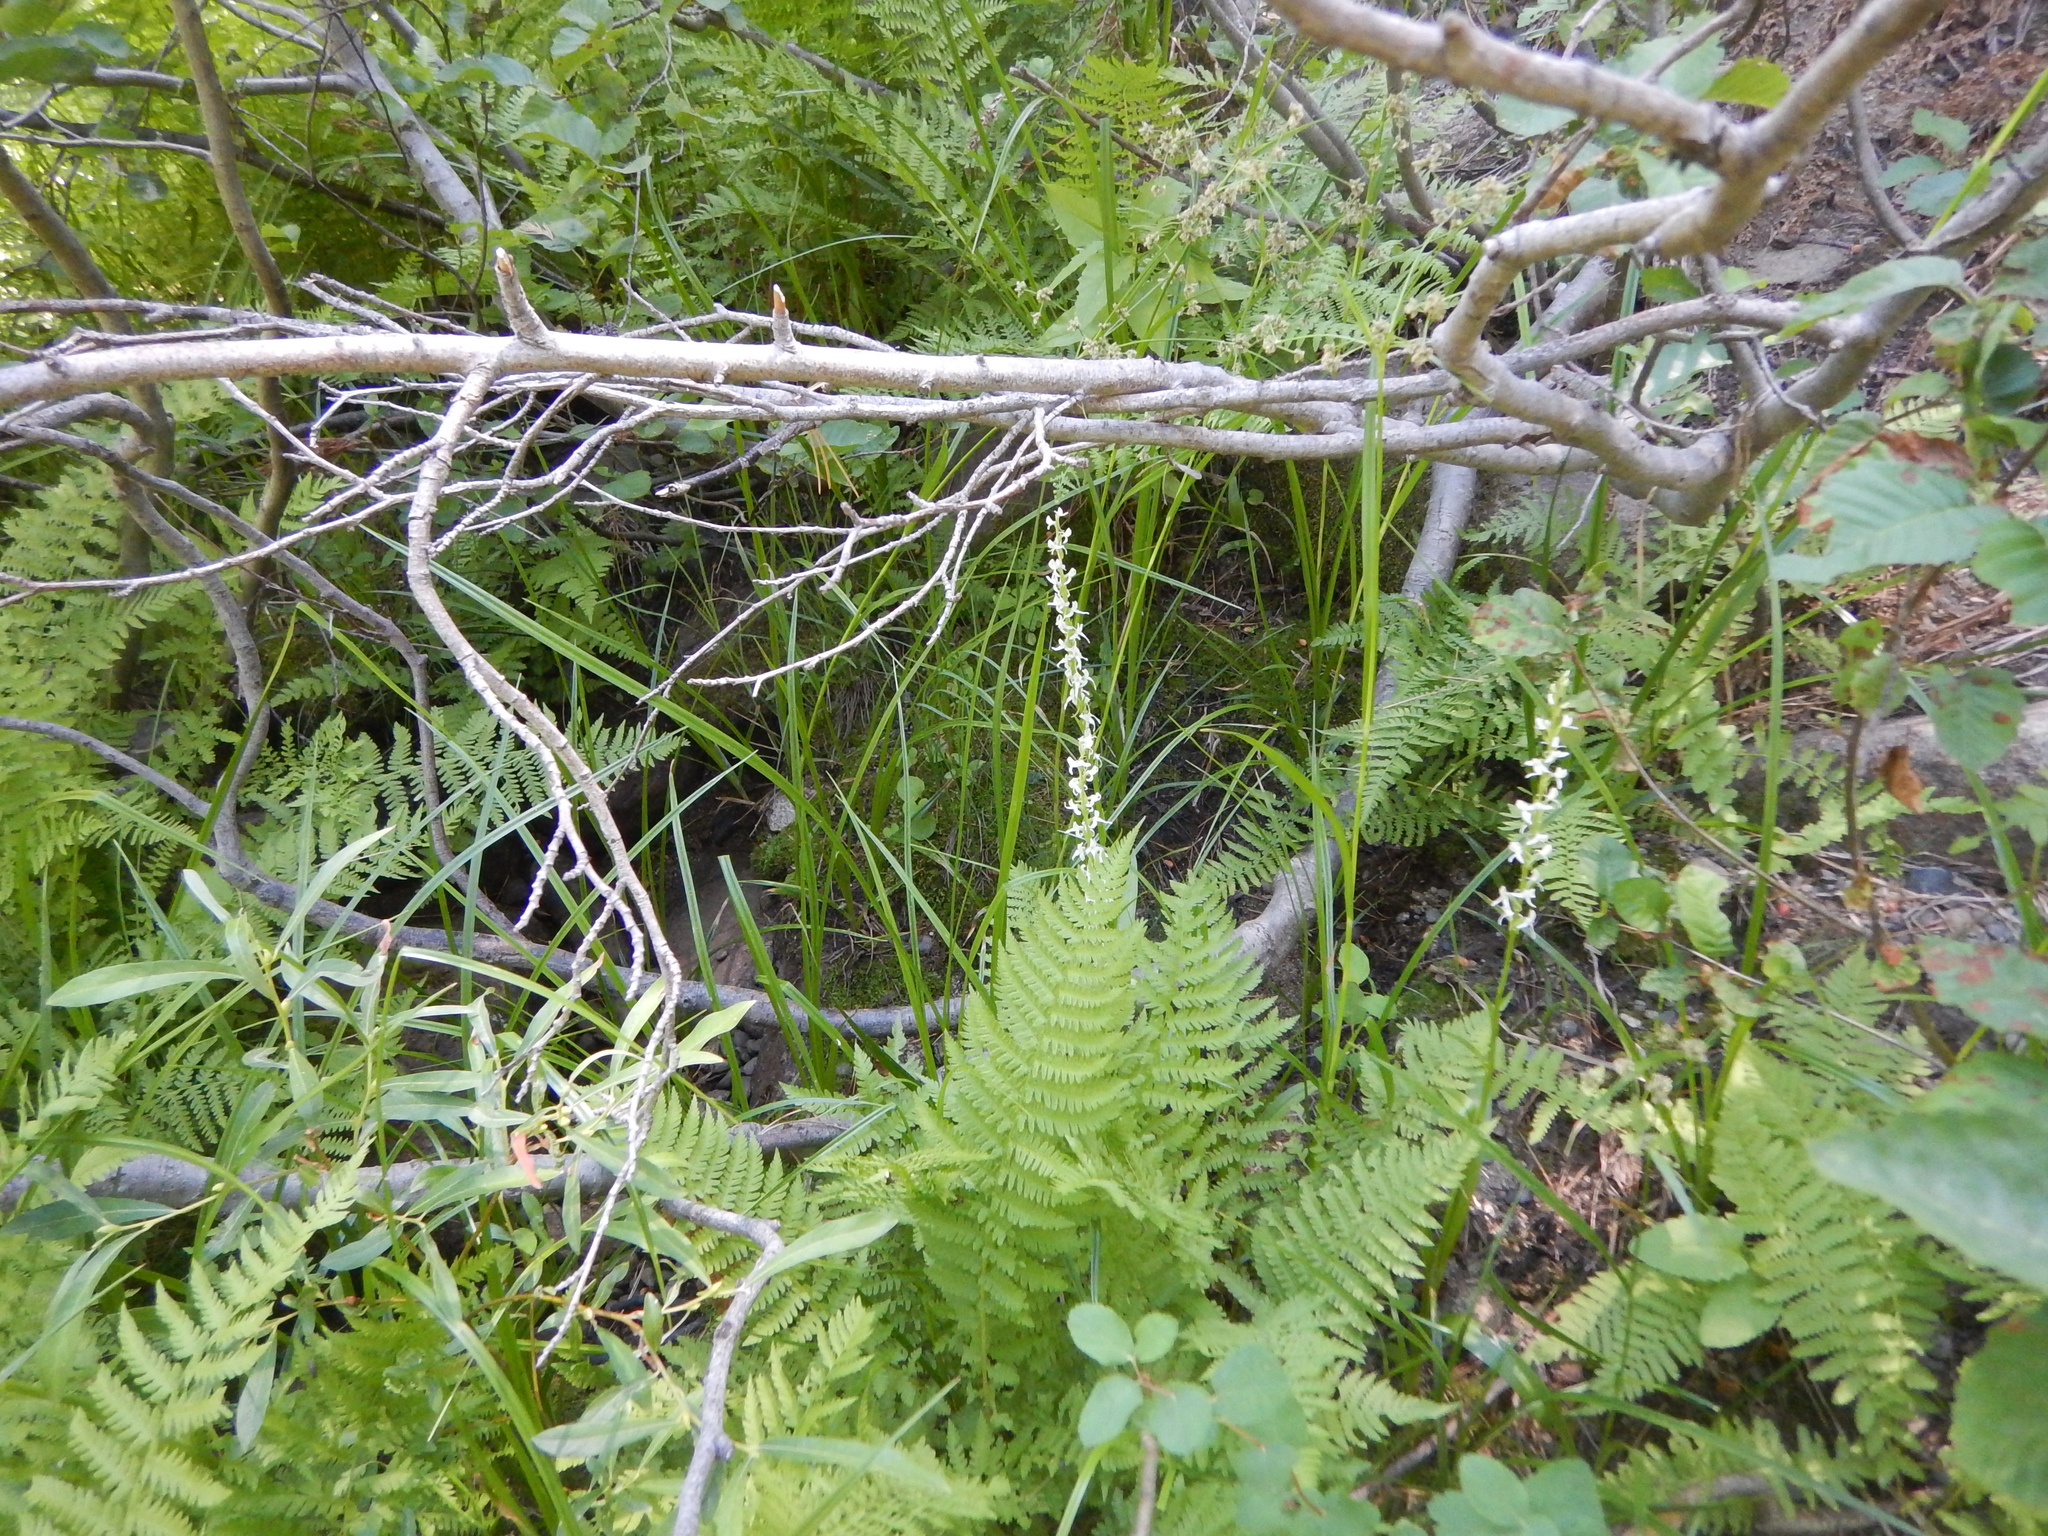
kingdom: Plantae
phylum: Tracheophyta
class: Liliopsida
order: Asparagales
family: Orchidaceae
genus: Platanthera
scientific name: Platanthera dilatata
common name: Bog candles
